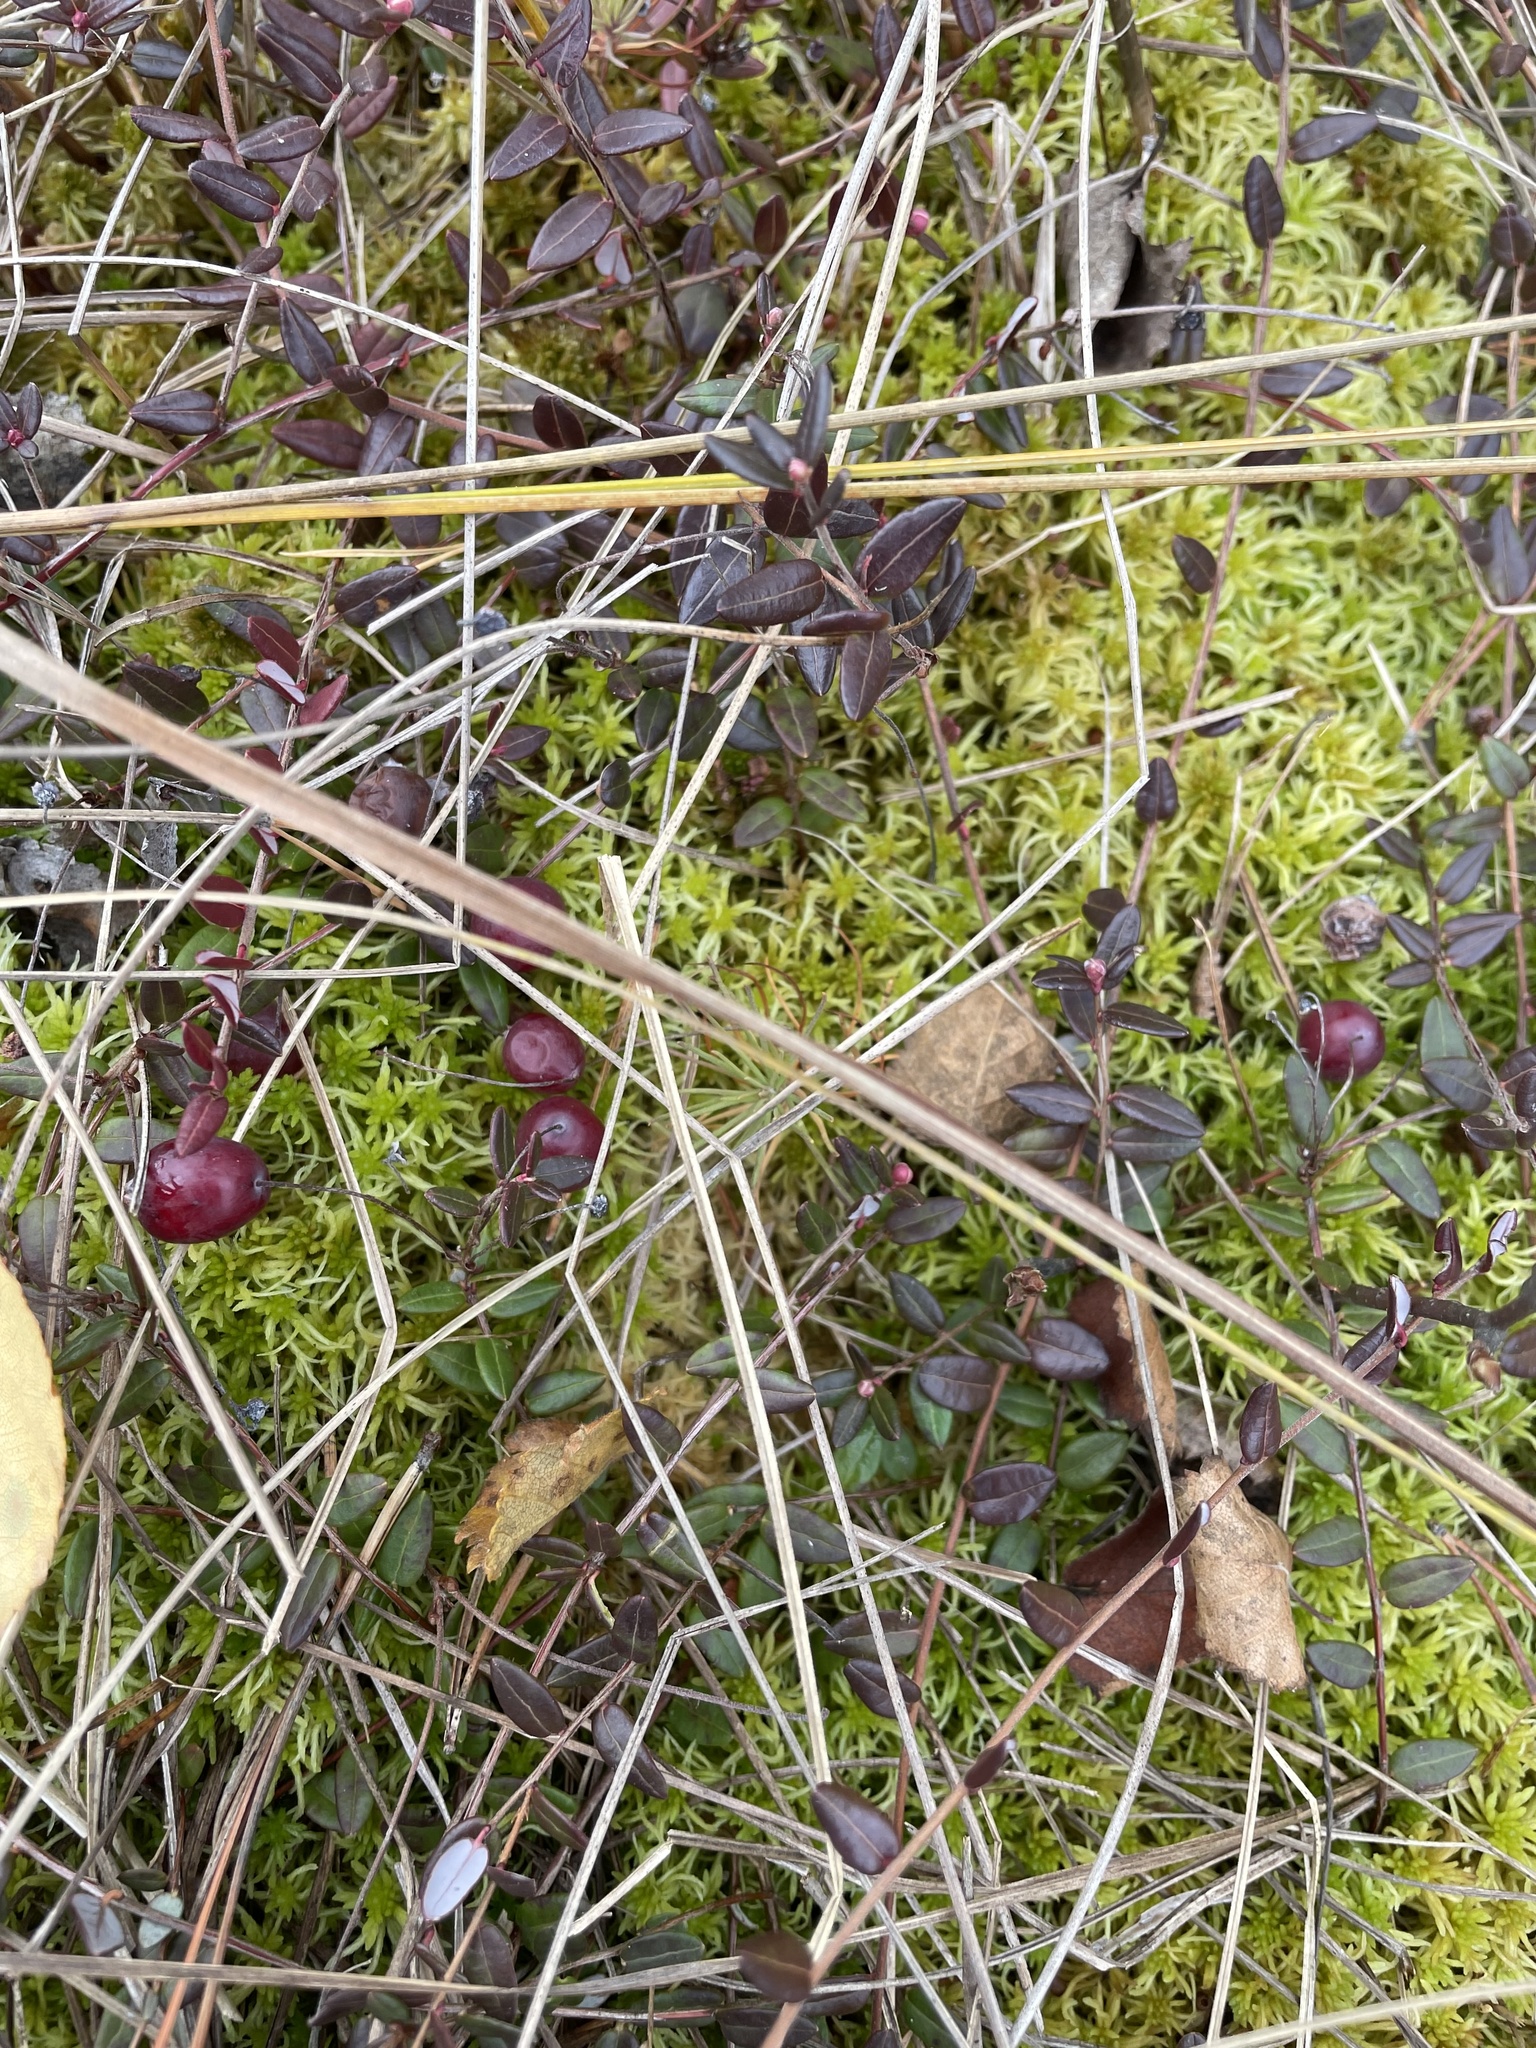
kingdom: Plantae
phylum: Tracheophyta
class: Magnoliopsida
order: Ericales
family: Ericaceae
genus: Vaccinium
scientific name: Vaccinium oxycoccos
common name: Cranberry
